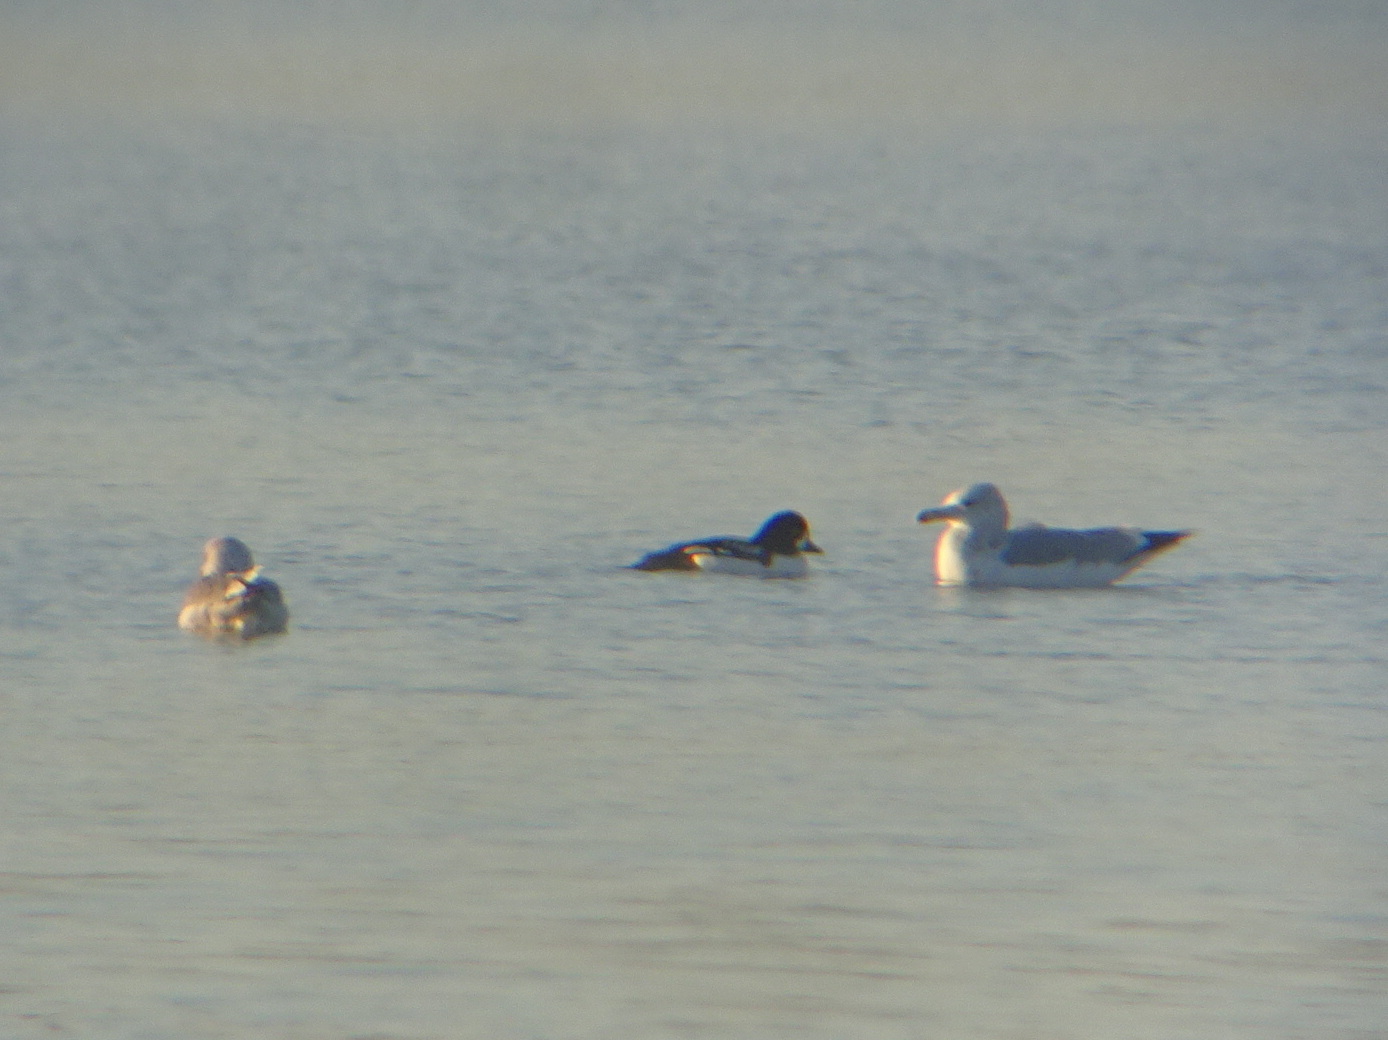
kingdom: Animalia
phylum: Chordata
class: Aves
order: Anseriformes
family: Anatidae
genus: Bucephala
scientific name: Bucephala islandica
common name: Barrow's goldeneye
